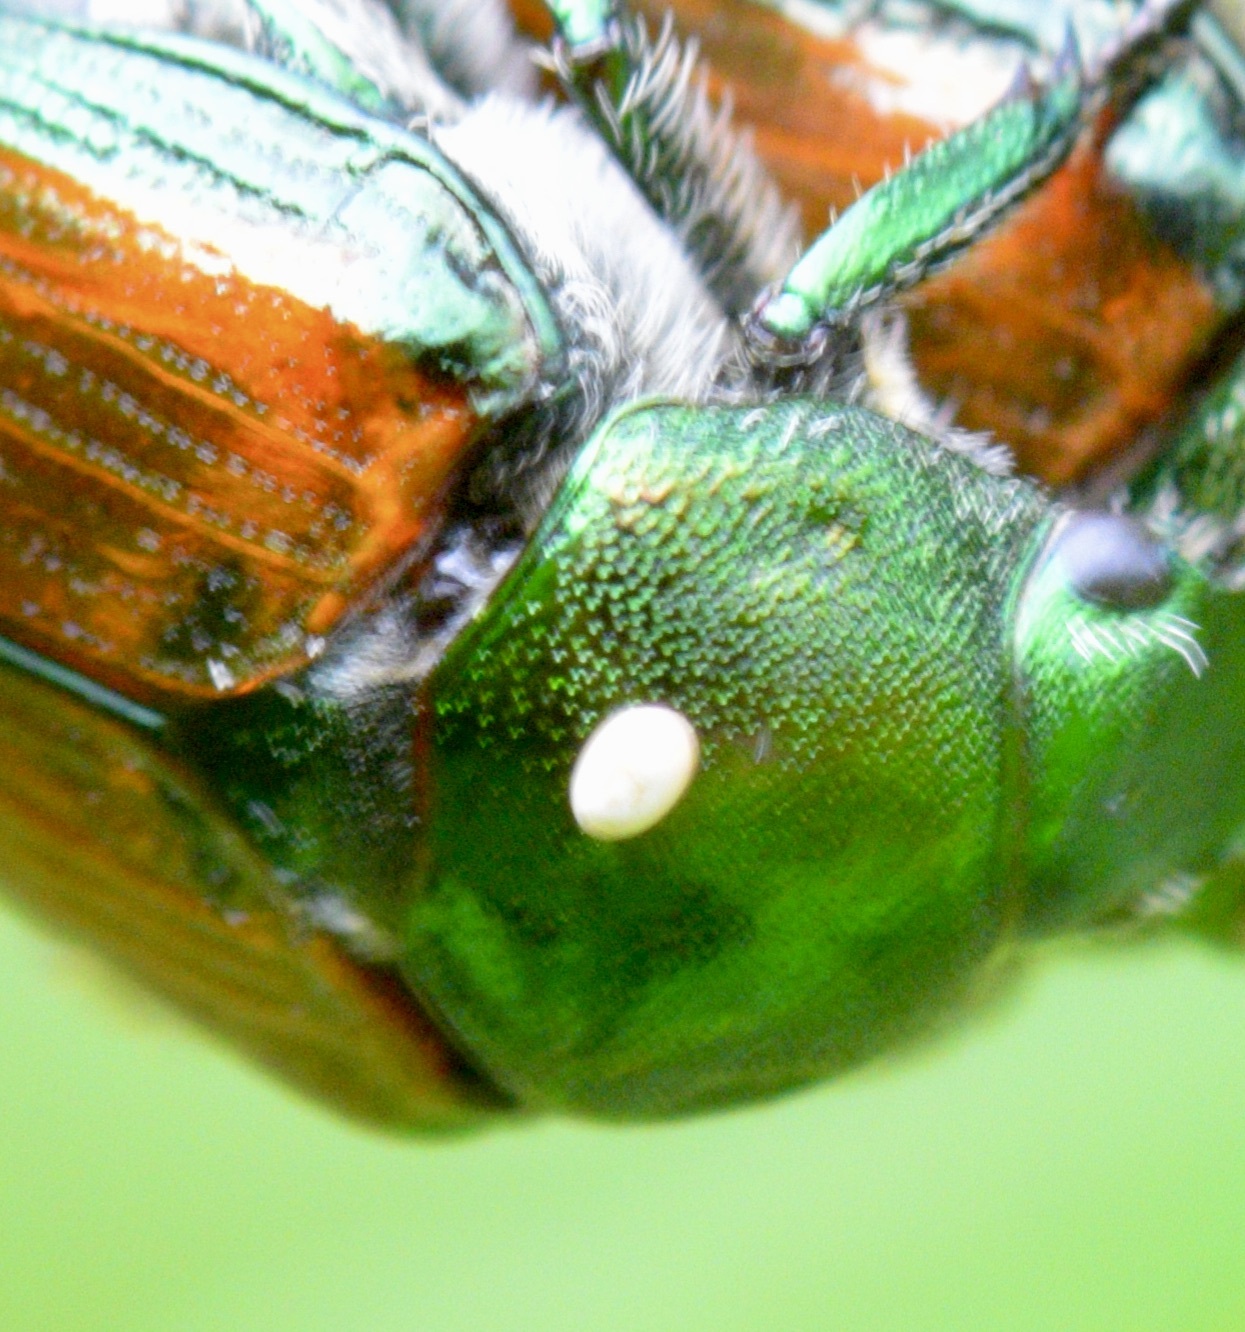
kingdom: Animalia
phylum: Arthropoda
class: Insecta
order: Diptera
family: Tachinidae
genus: Istocheta
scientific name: Istocheta aldrichi
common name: Parasitic wasp
